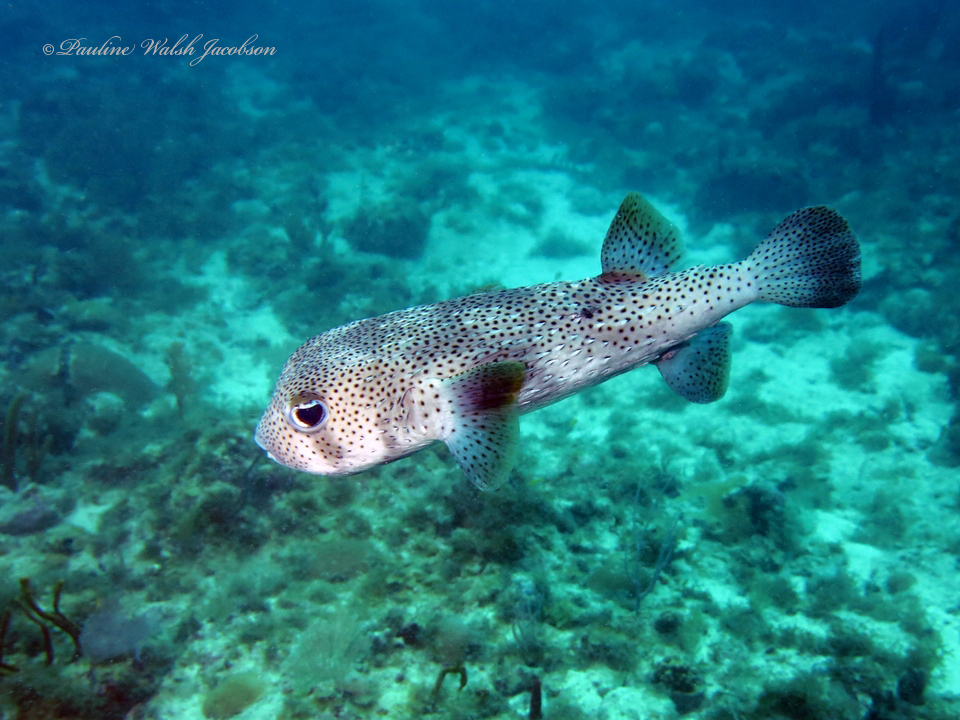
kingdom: Animalia
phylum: Chordata
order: Tetraodontiformes
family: Diodontidae
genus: Diodon
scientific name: Diodon hystrix
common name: Giant porcupinefish
